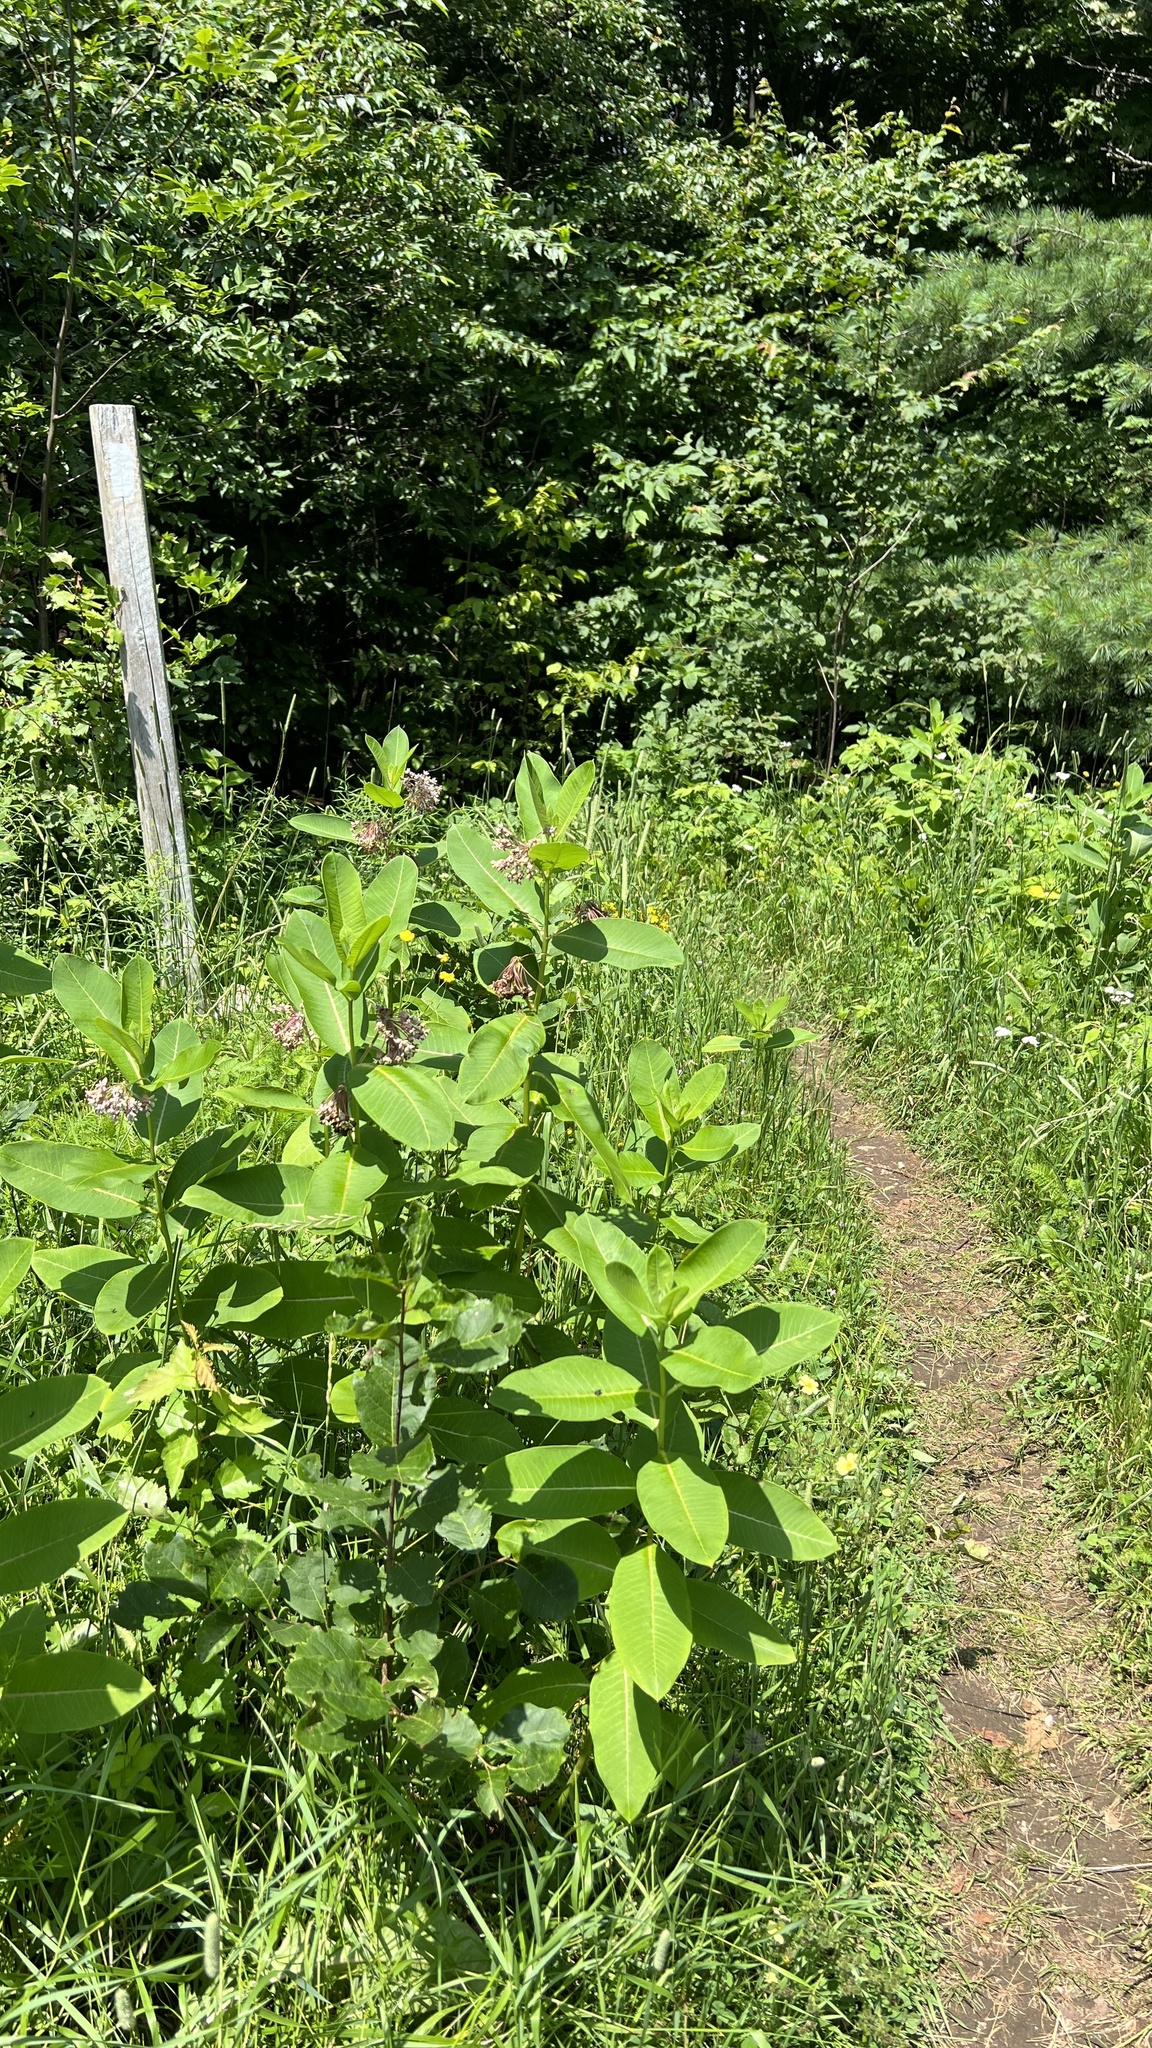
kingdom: Plantae
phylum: Tracheophyta
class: Magnoliopsida
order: Gentianales
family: Apocynaceae
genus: Asclepias
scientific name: Asclepias syriaca
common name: Common milkweed
